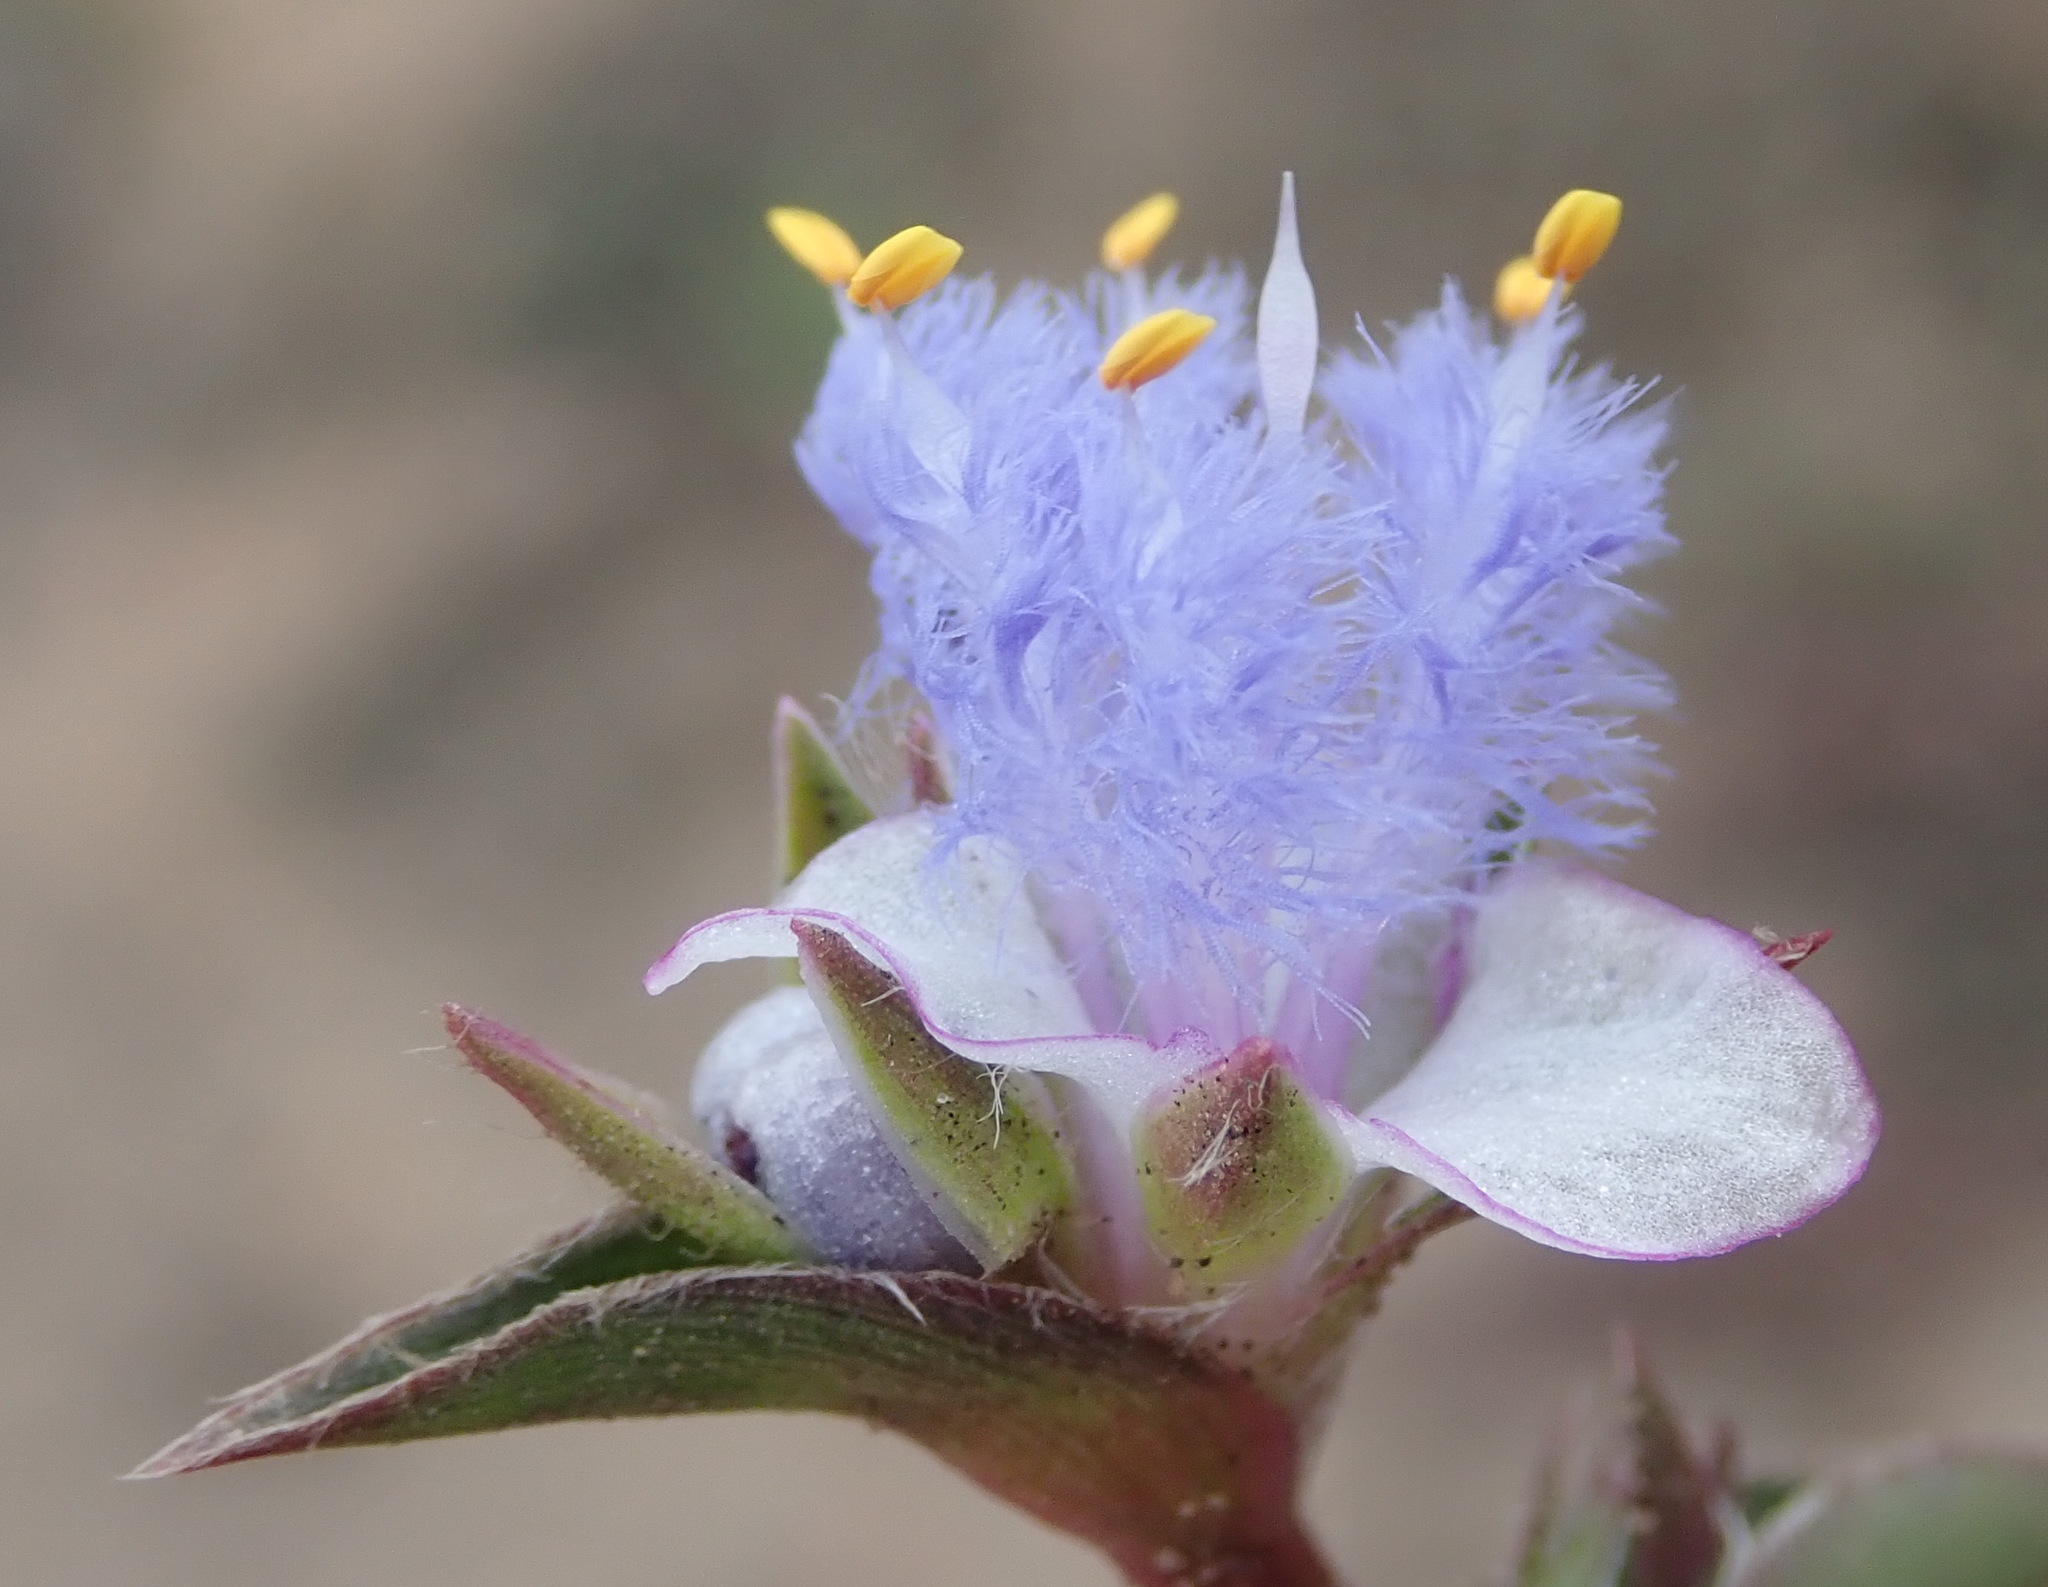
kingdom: Plantae
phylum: Tracheophyta
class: Liliopsida
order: Commelinales
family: Commelinaceae
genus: Cyanotis
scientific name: Cyanotis speciosa
